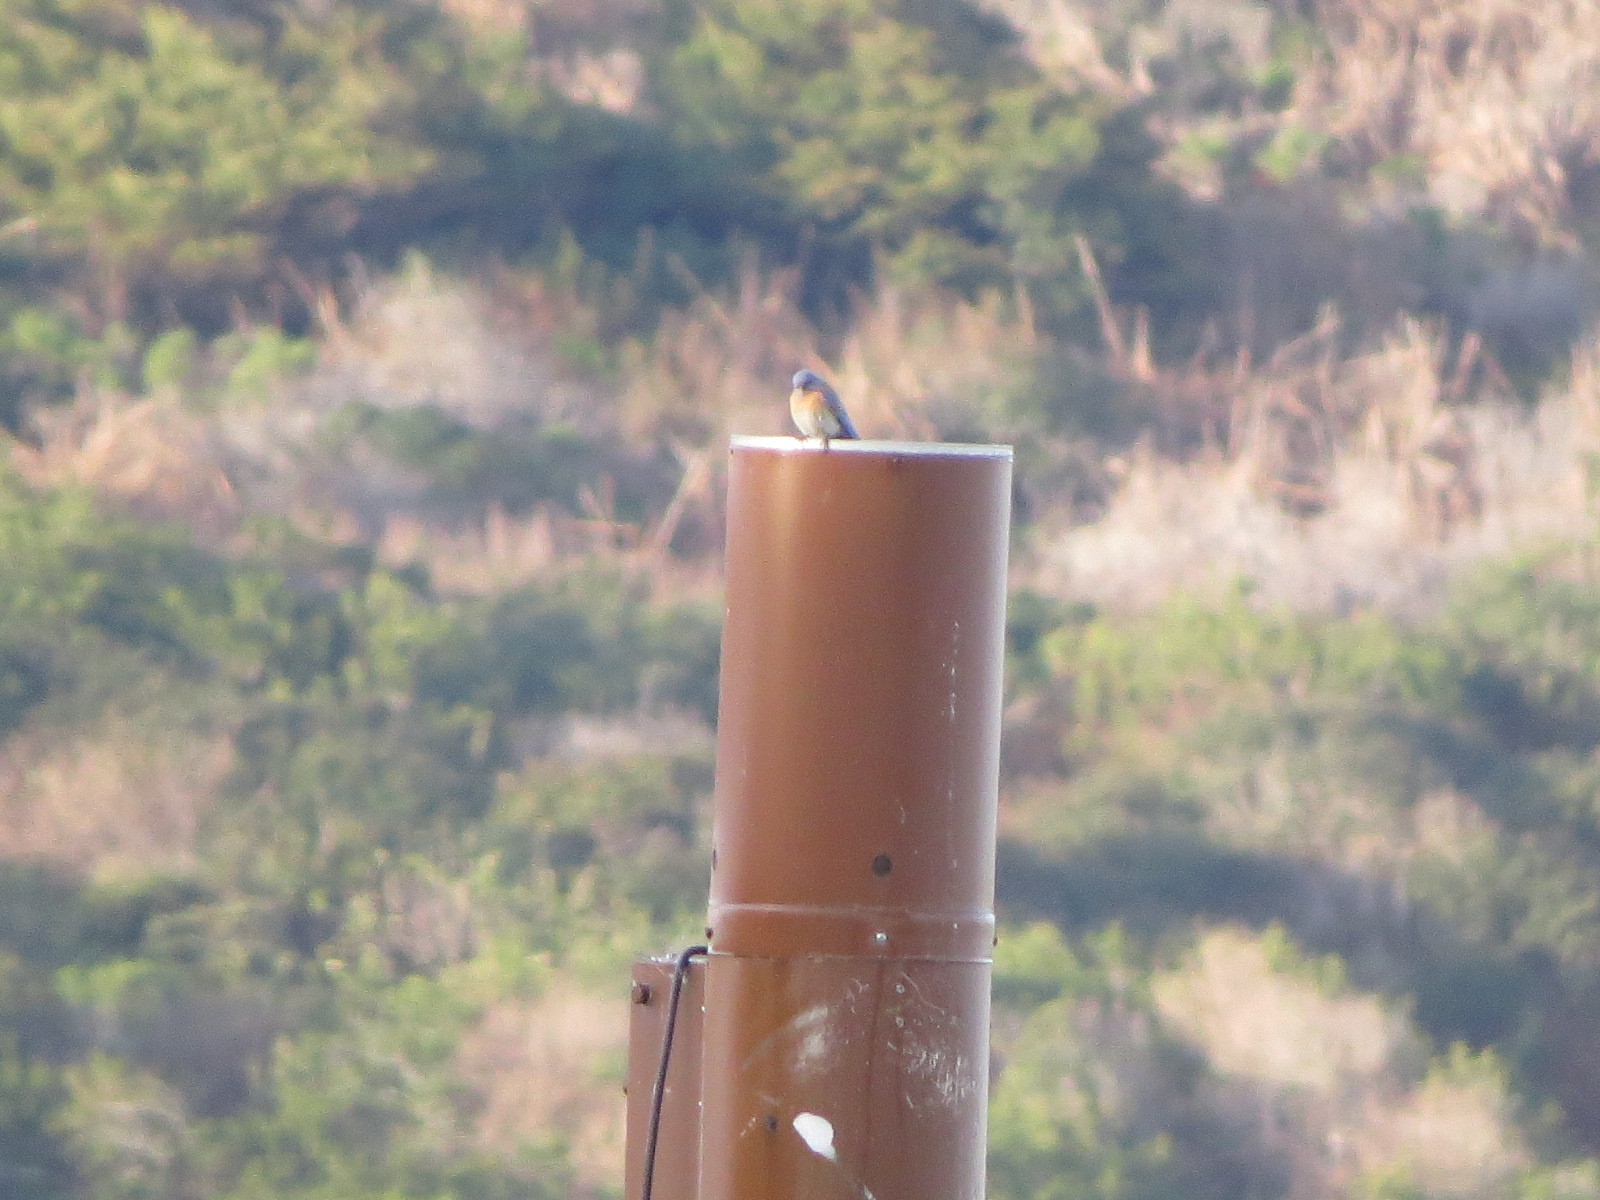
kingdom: Animalia
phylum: Chordata
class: Aves
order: Passeriformes
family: Turdidae
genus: Sialia
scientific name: Sialia mexicana
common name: Western bluebird
